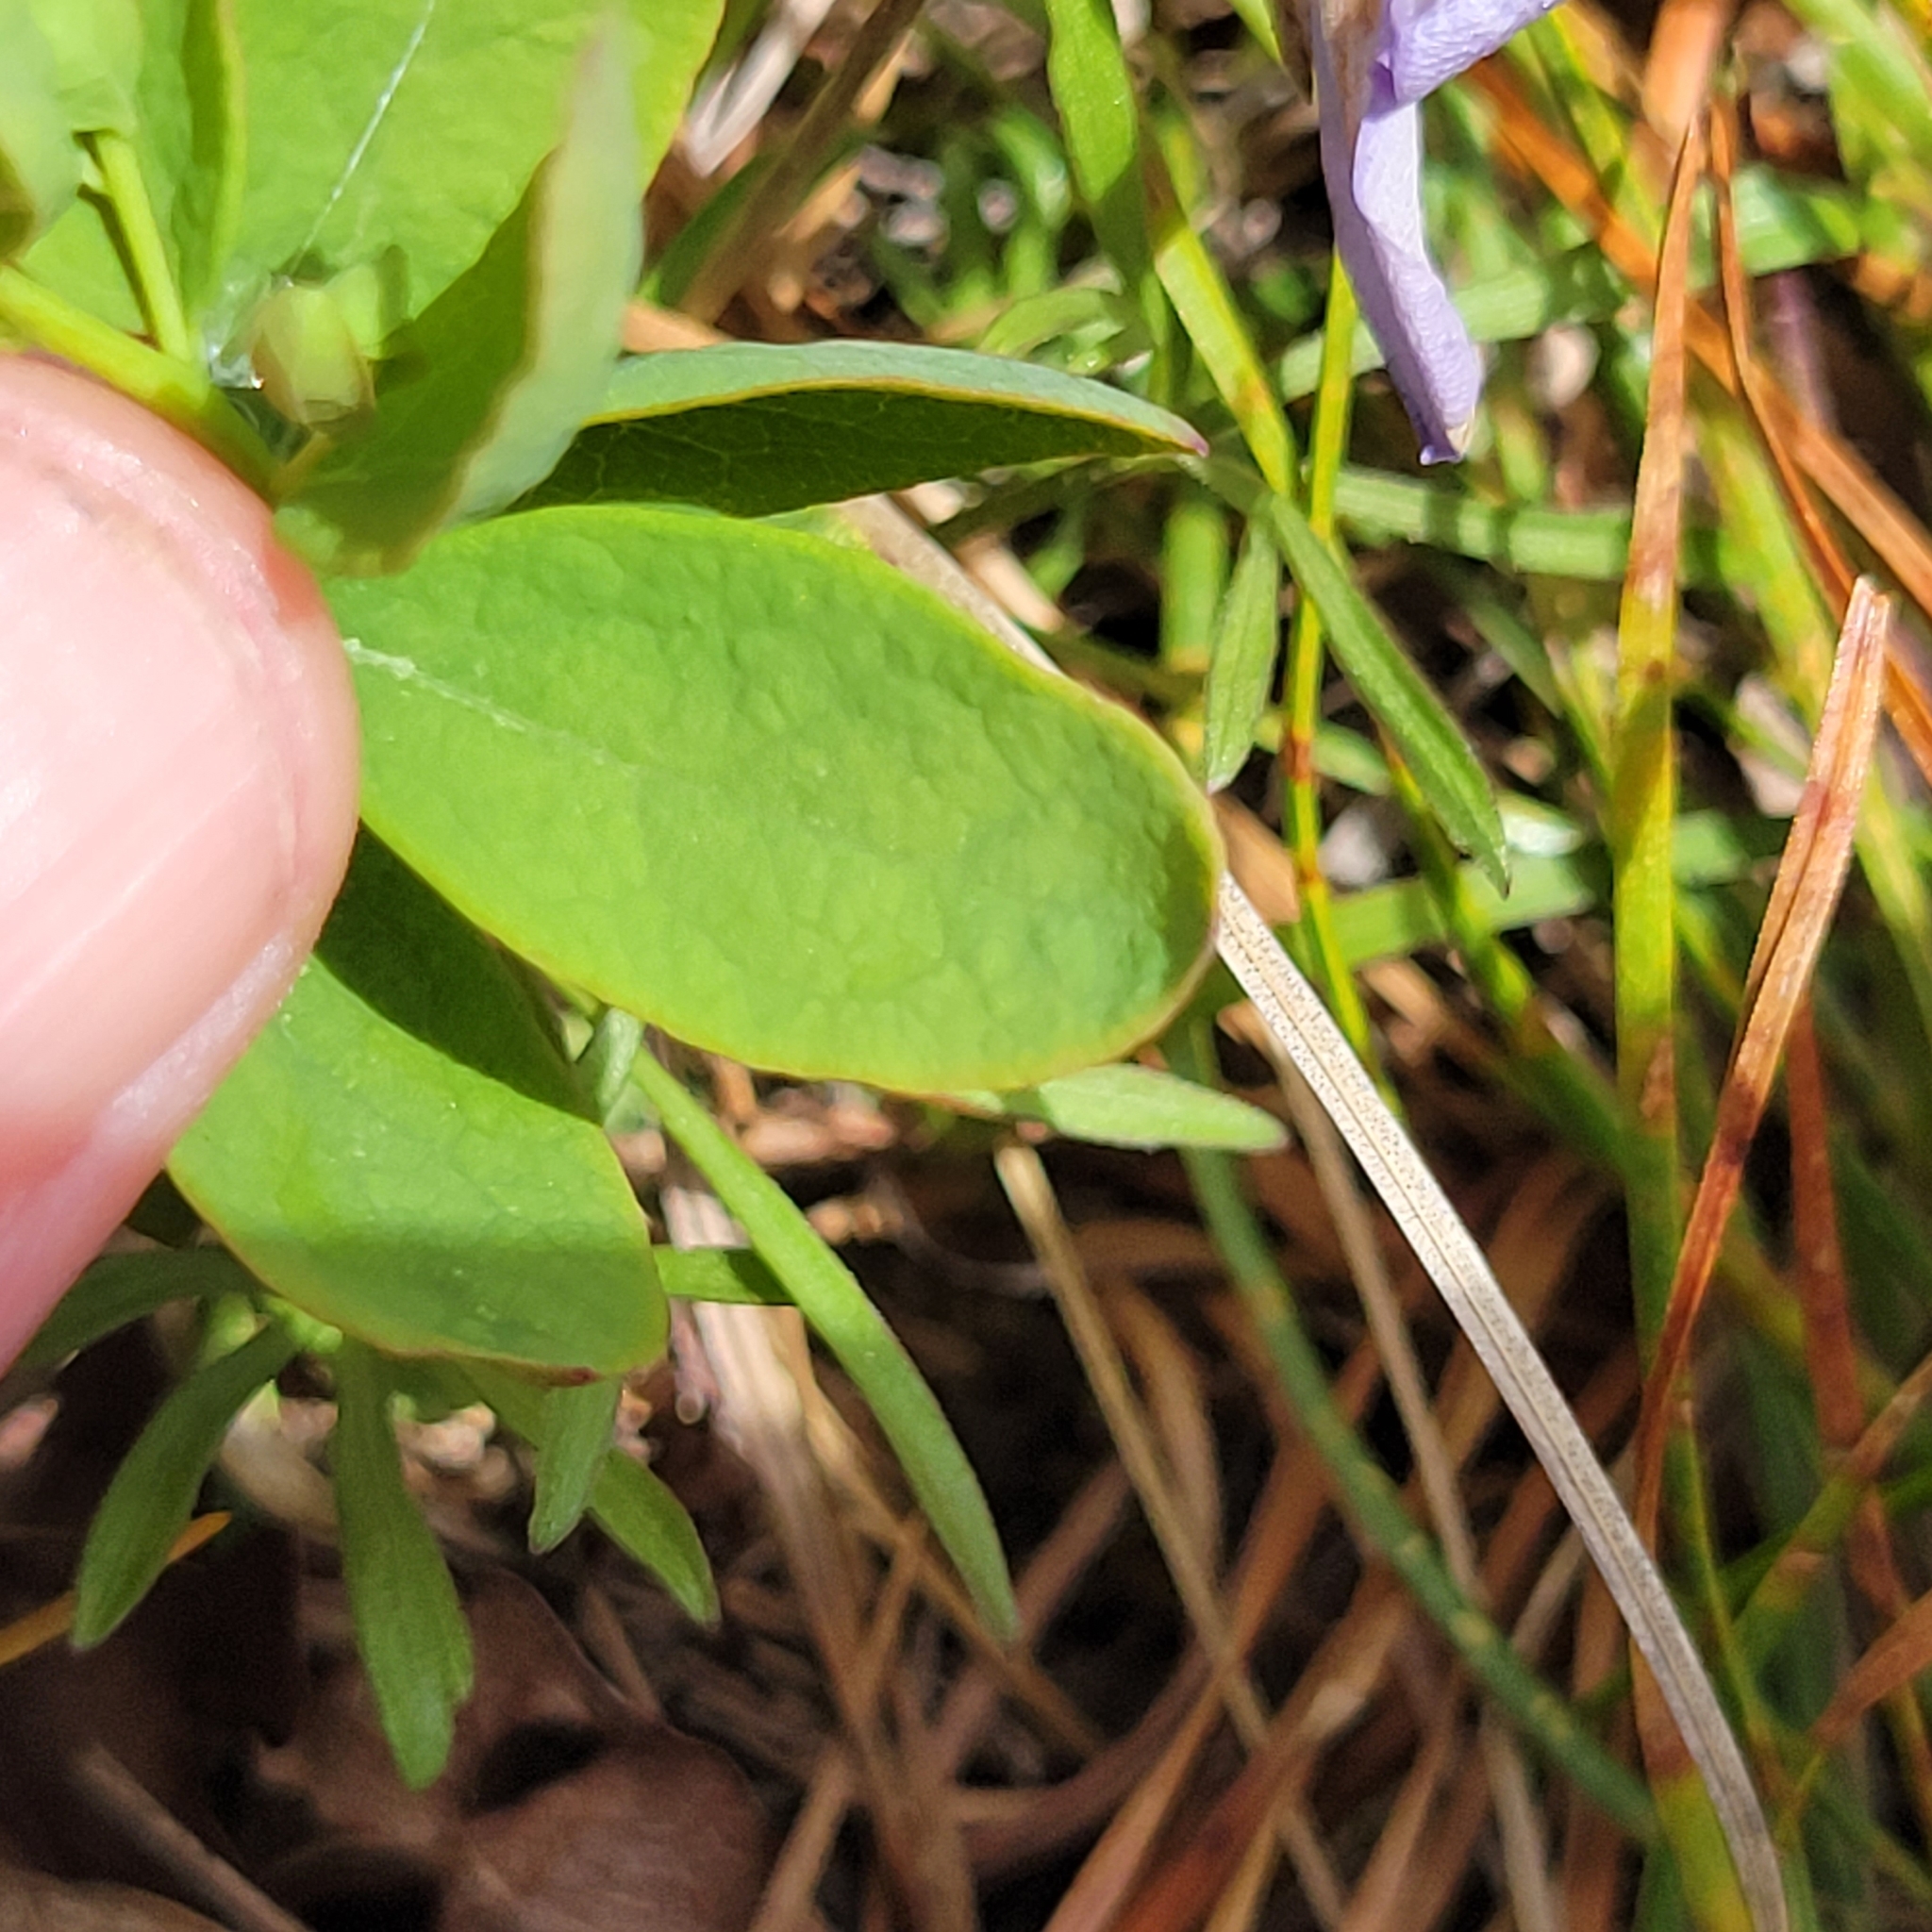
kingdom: Plantae
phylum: Tracheophyta
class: Magnoliopsida
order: Santalales
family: Comandraceae
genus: Comandra
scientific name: Comandra umbellata
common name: Bastard toadflax
